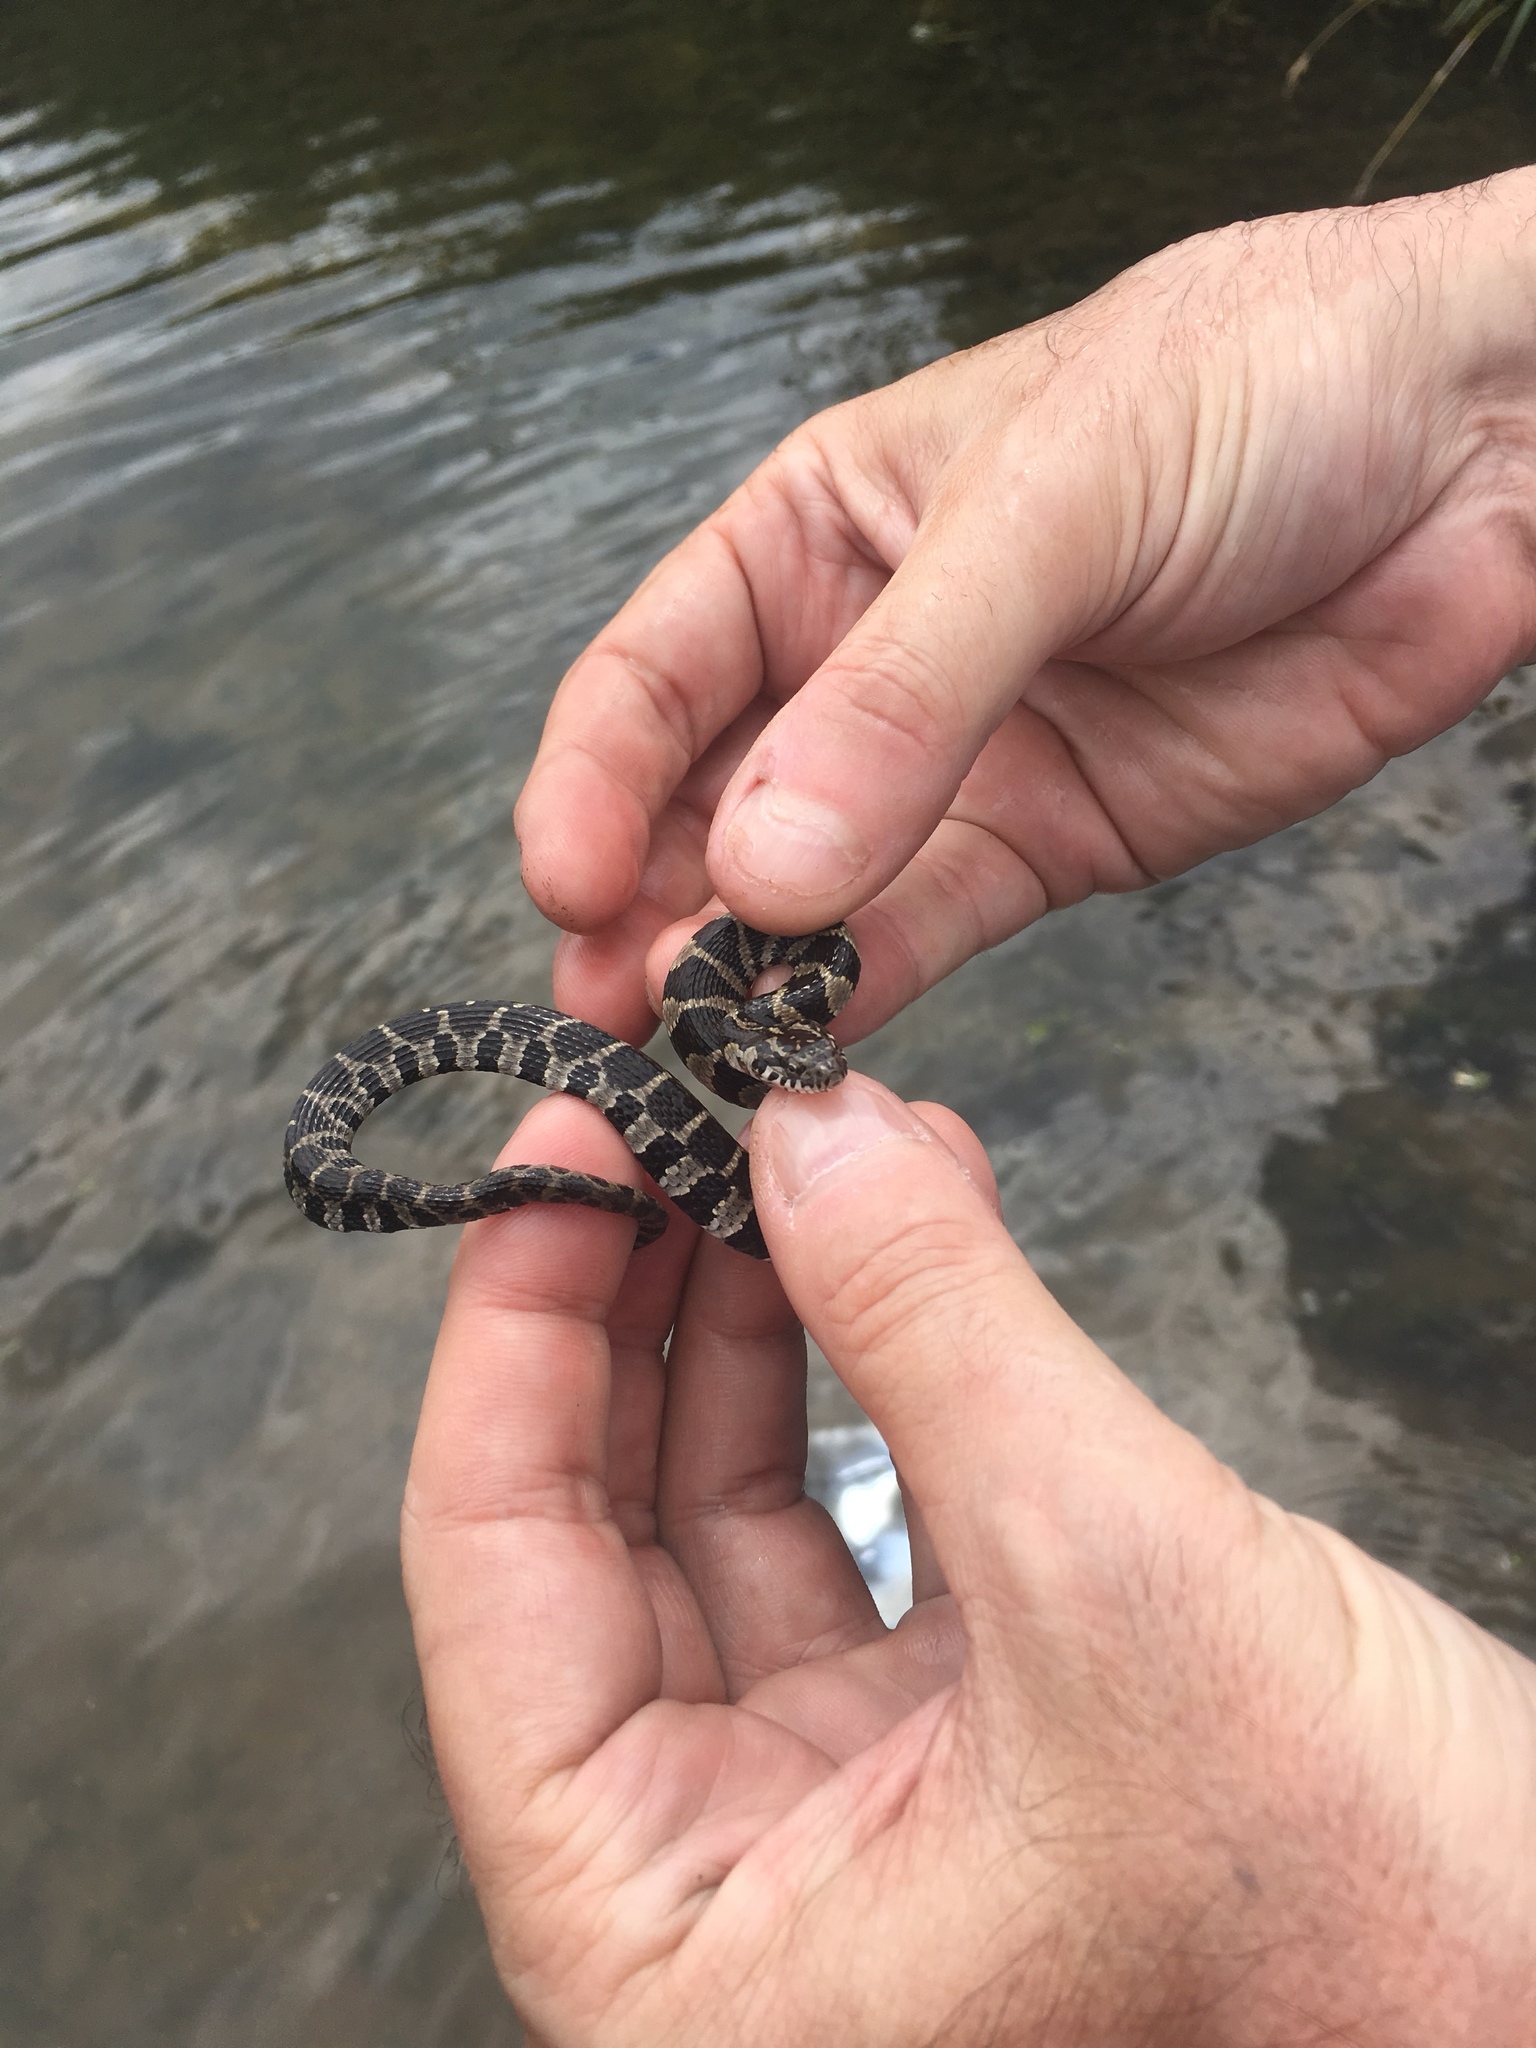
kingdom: Animalia
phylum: Chordata
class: Squamata
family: Colubridae
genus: Nerodia
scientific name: Nerodia sipedon
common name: Northern water snake
